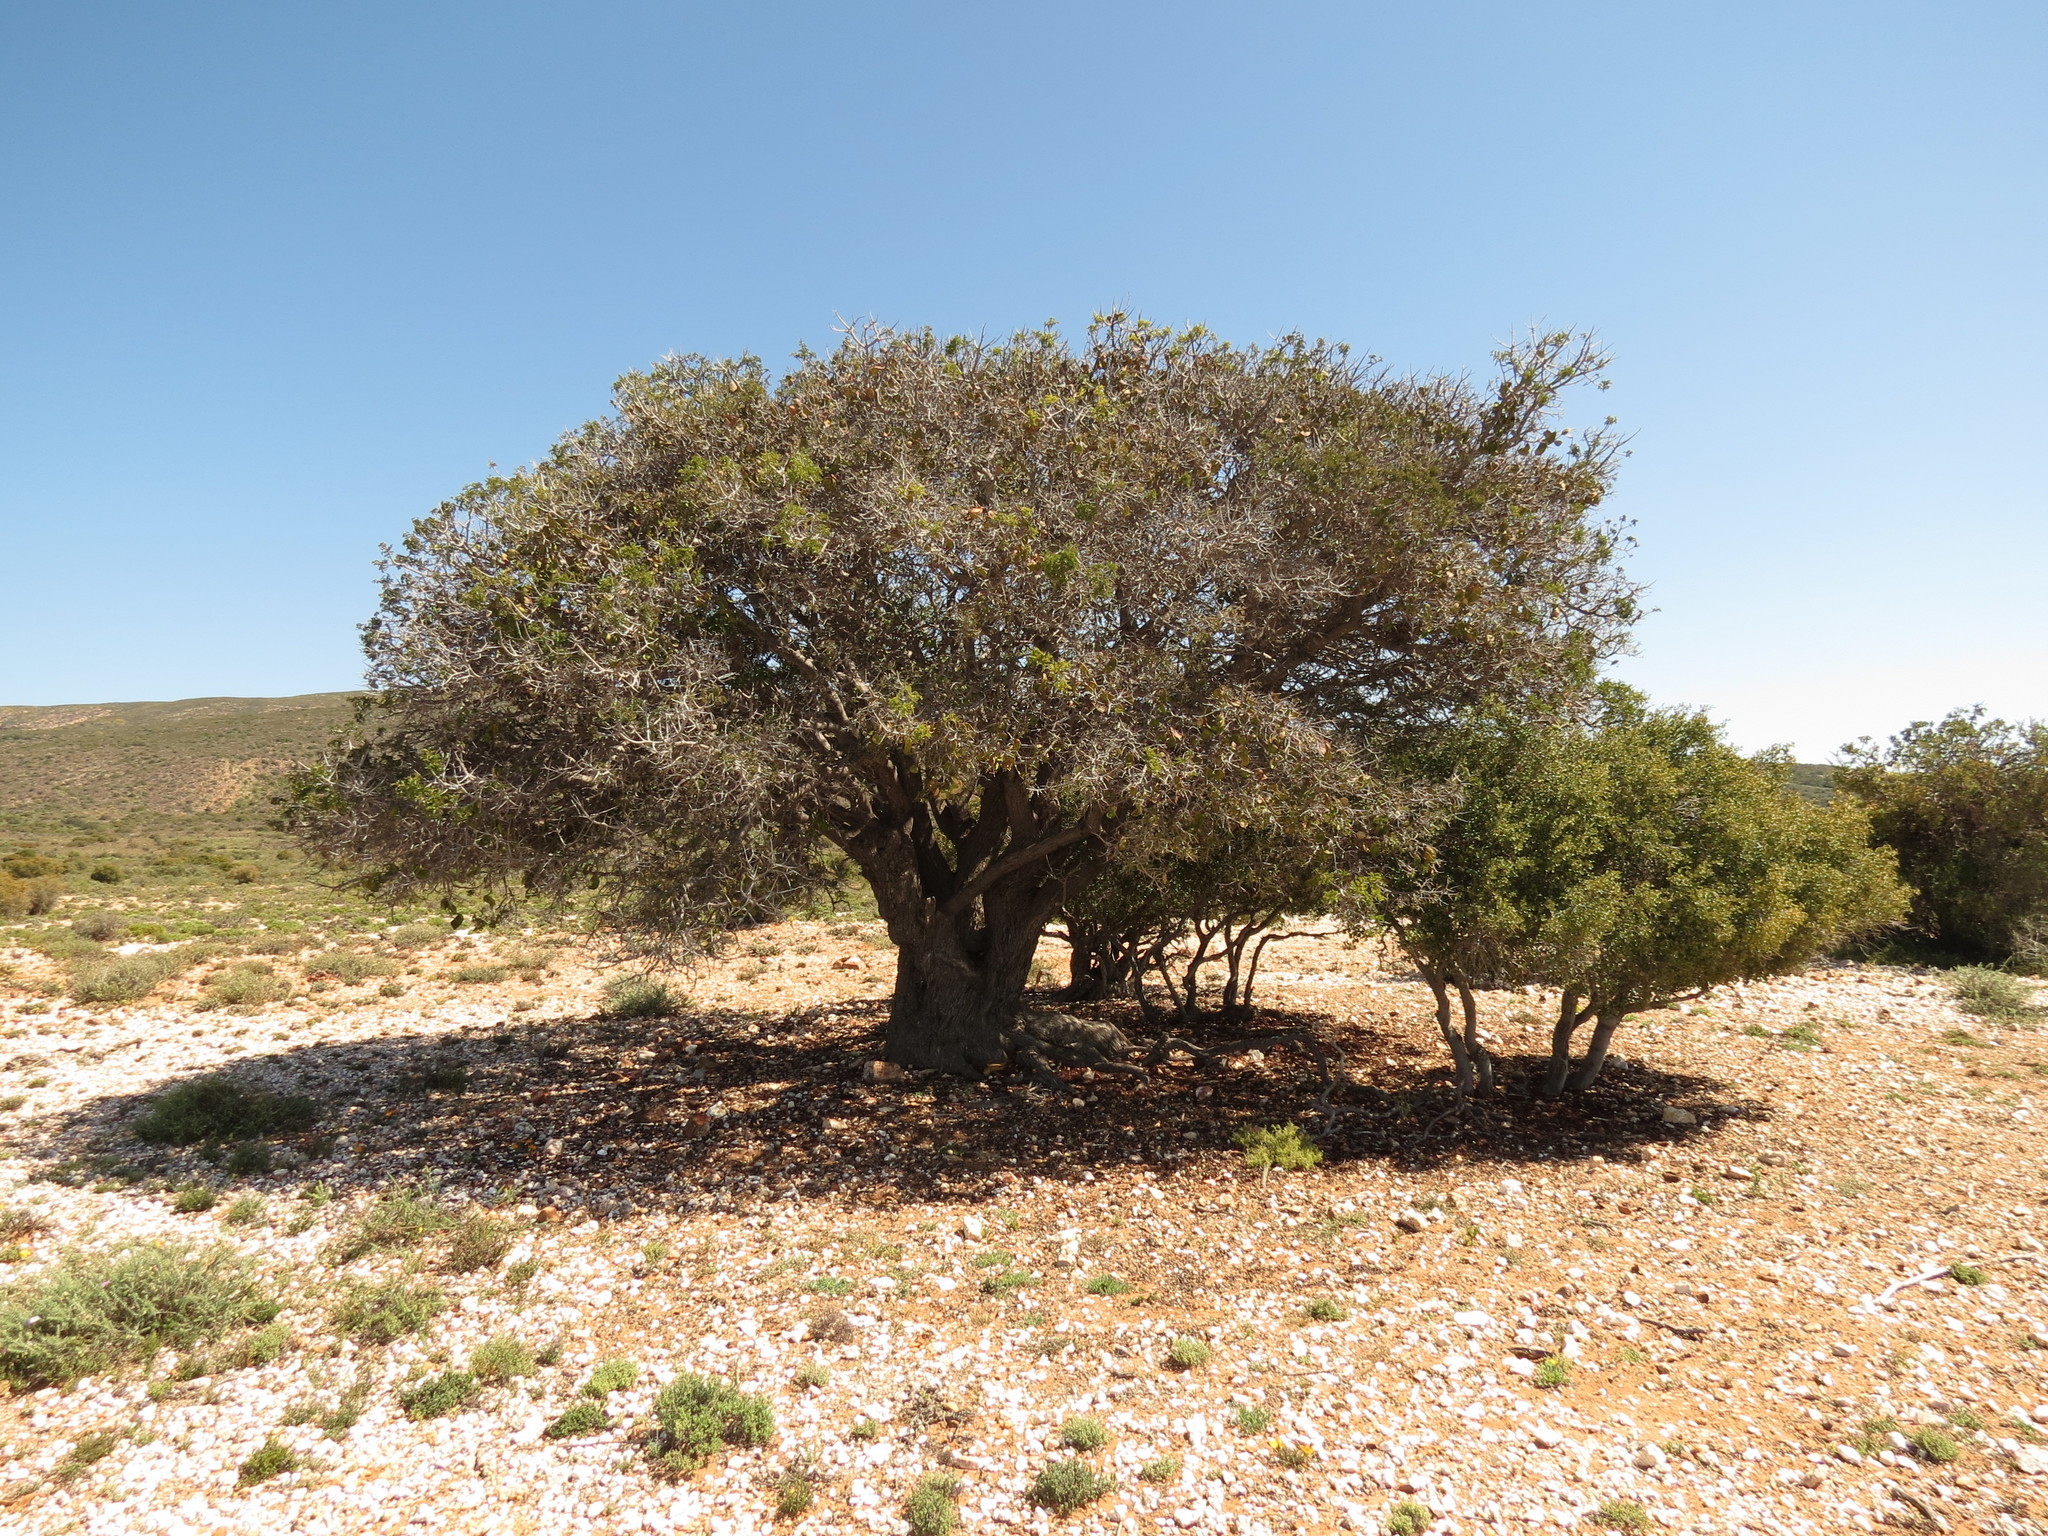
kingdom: Plantae
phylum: Tracheophyta
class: Magnoliopsida
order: Fabales
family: Fabaceae
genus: Schotia
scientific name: Schotia afra
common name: Hottentot's bean
